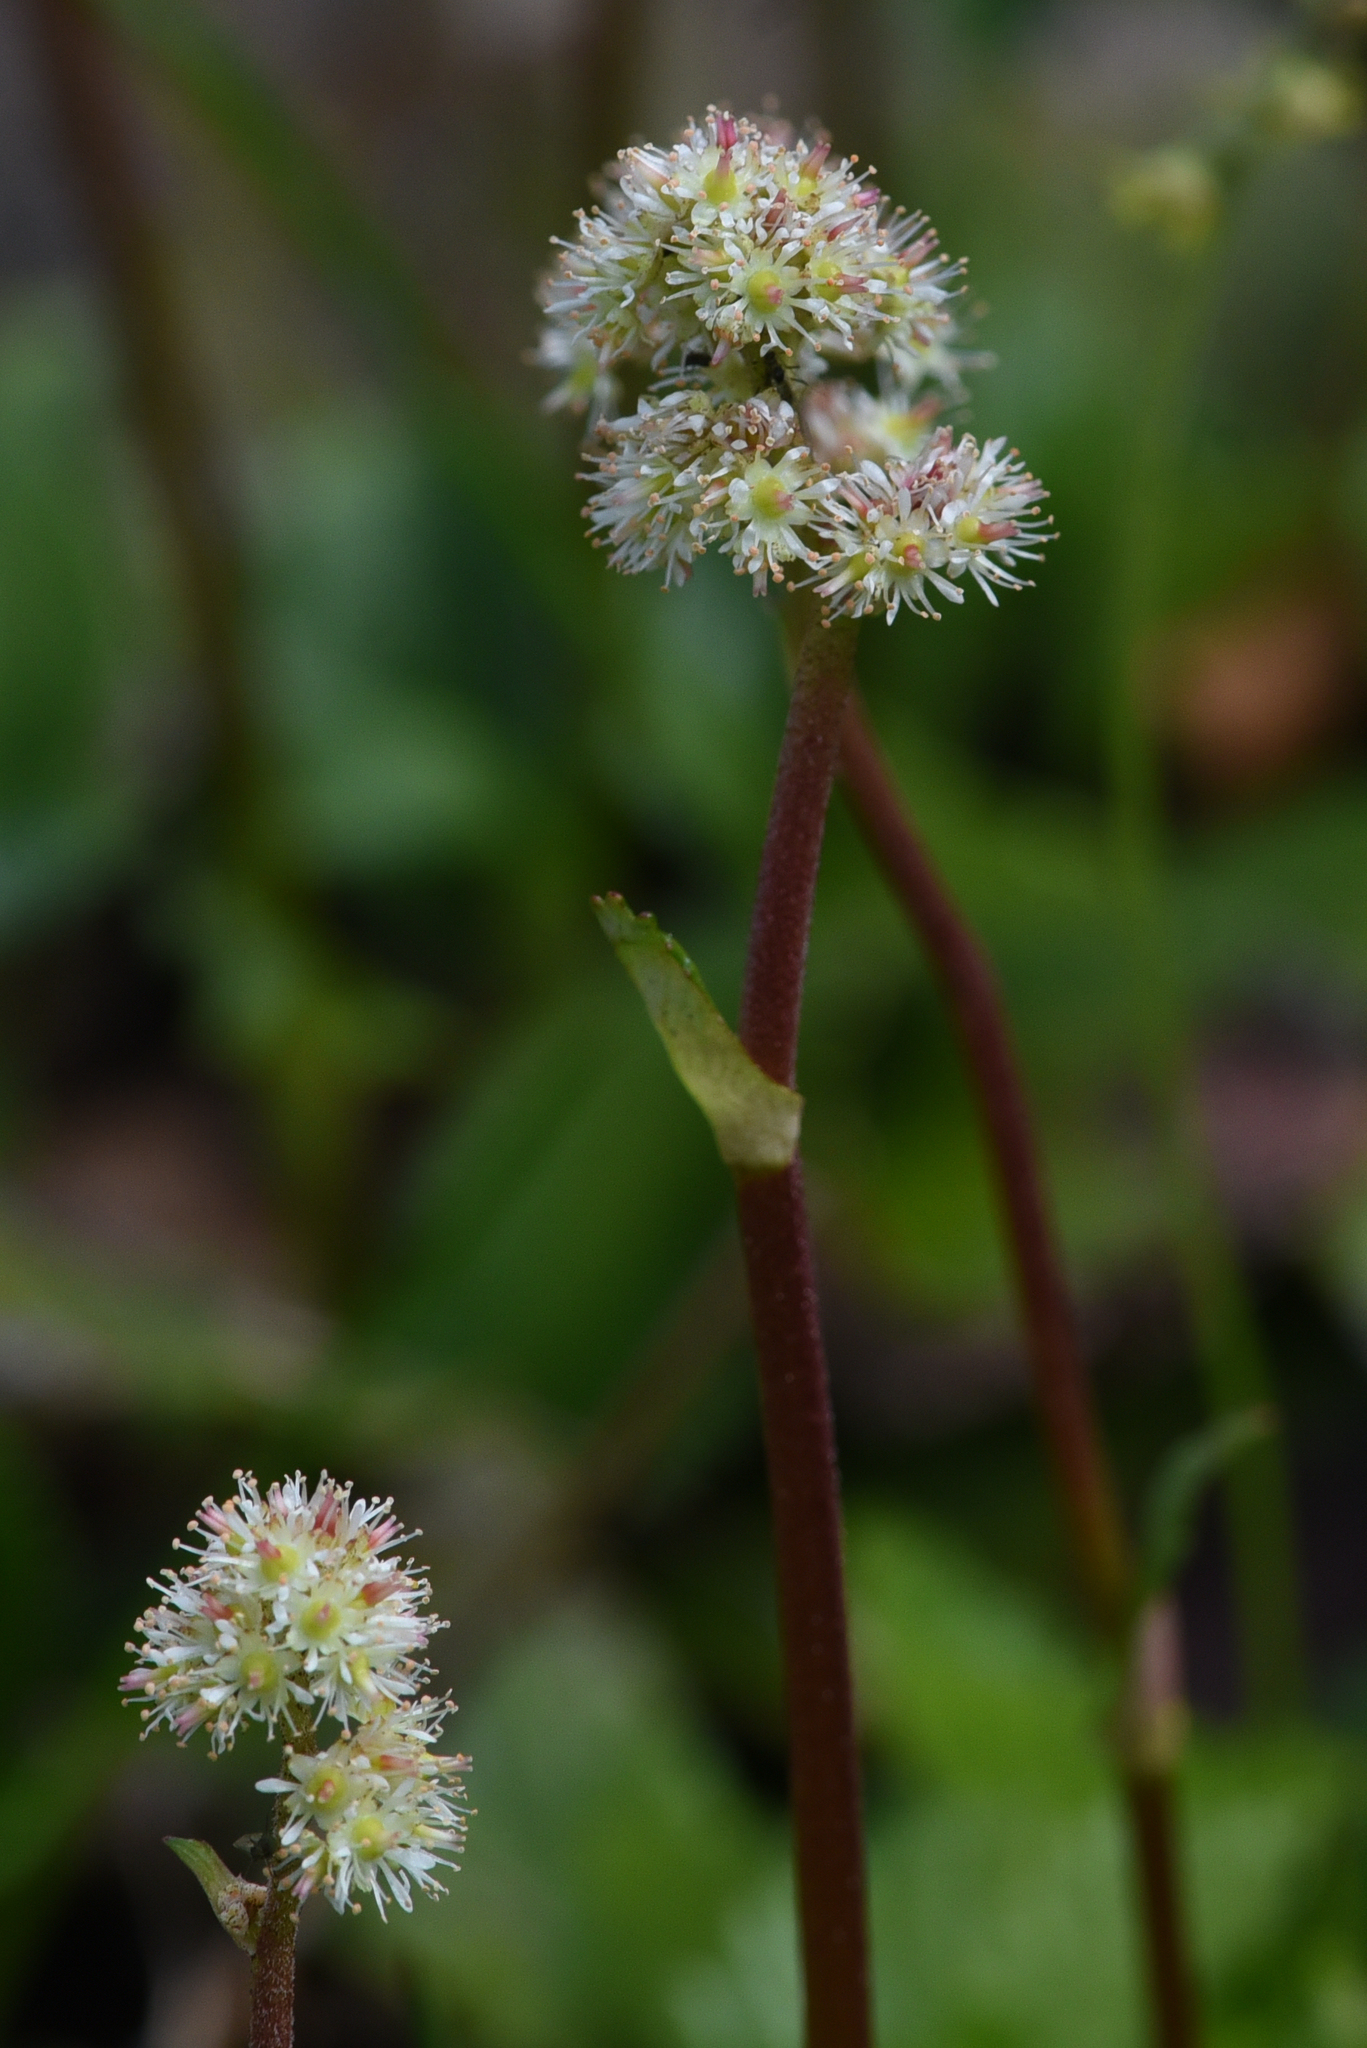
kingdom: Plantae
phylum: Tracheophyta
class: Magnoliopsida
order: Saxifragales
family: Saxifragaceae
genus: Leptarrhena
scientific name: Leptarrhena pyrolifolia
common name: Leatherleaf-saxifrage
